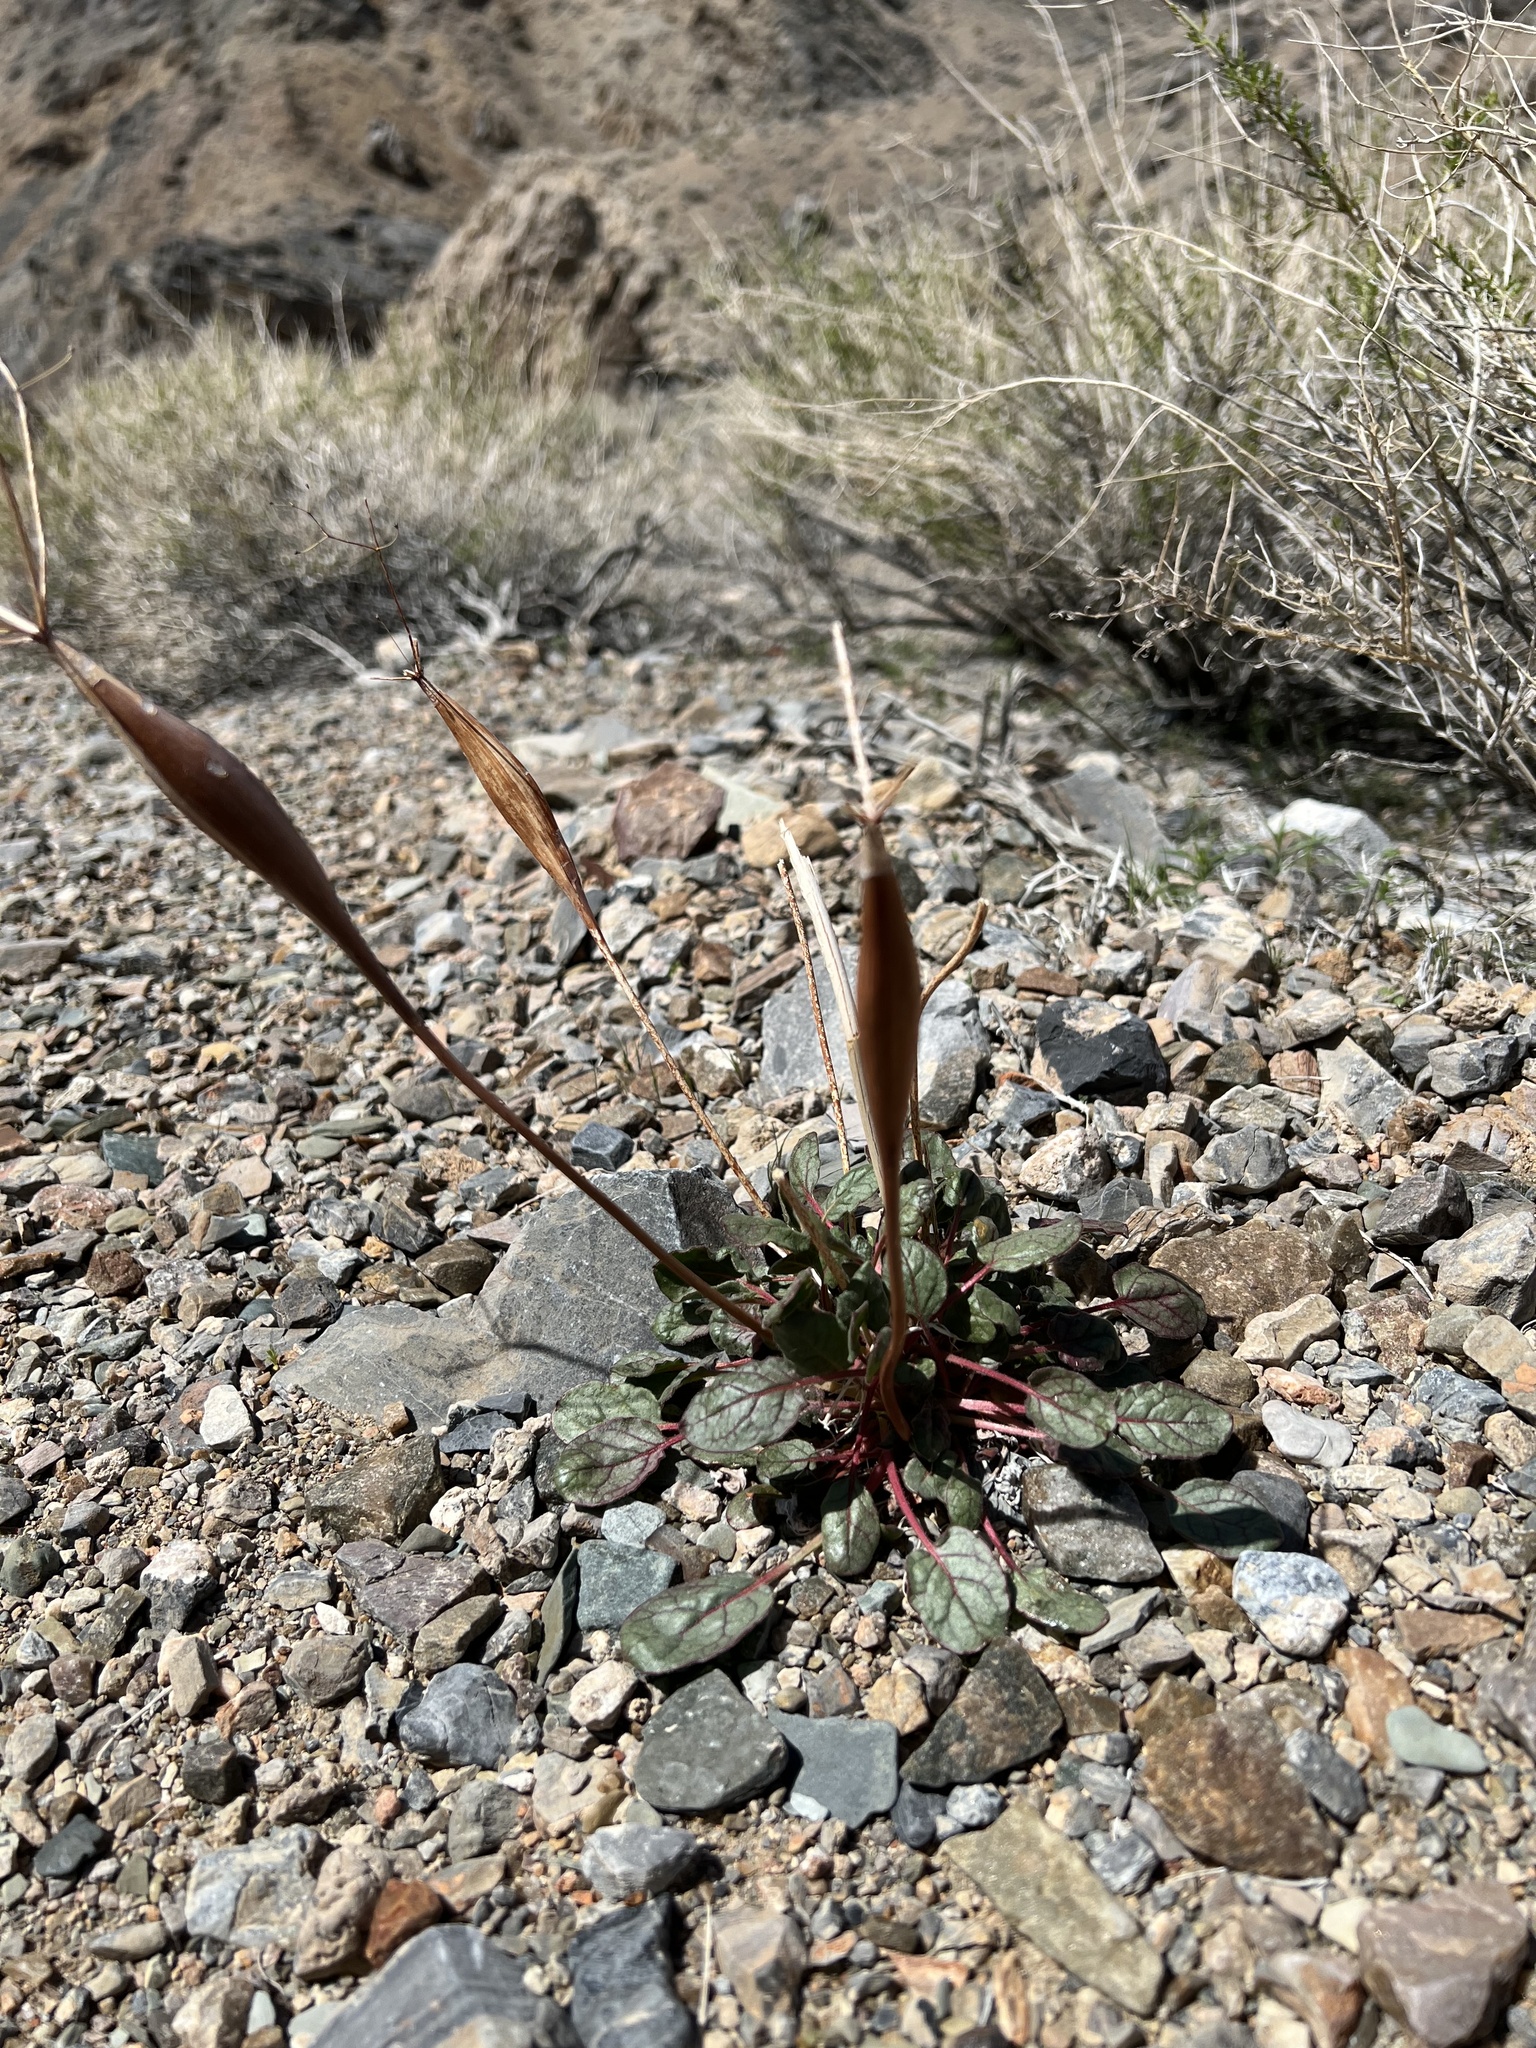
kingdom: Plantae
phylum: Tracheophyta
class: Magnoliopsida
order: Caryophyllales
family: Polygonaceae
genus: Eriogonum
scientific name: Eriogonum inflatum
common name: Desert trumpet
